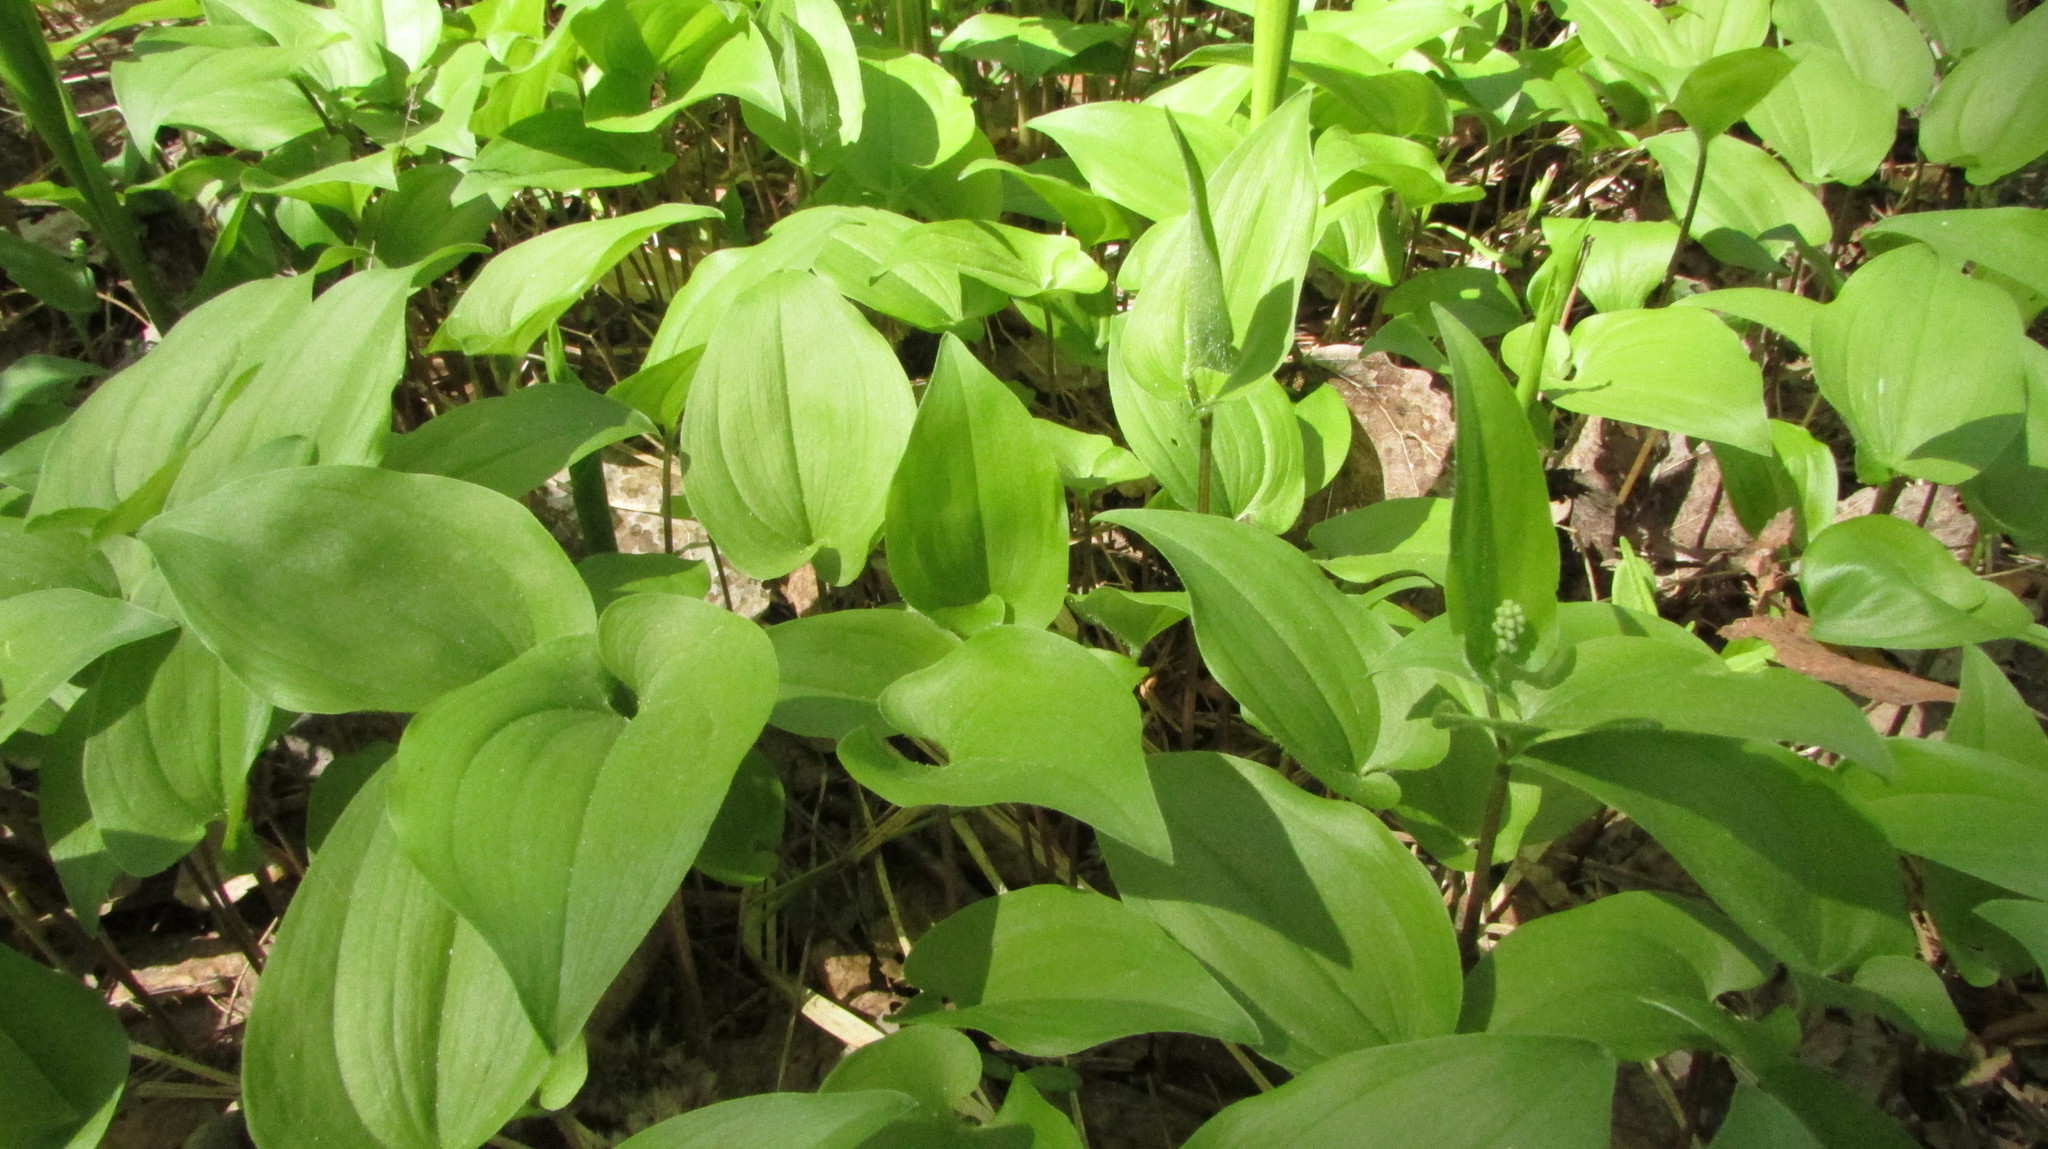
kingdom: Plantae
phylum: Tracheophyta
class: Liliopsida
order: Asparagales
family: Asparagaceae
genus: Maianthemum
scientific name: Maianthemum bifolium
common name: May lily
